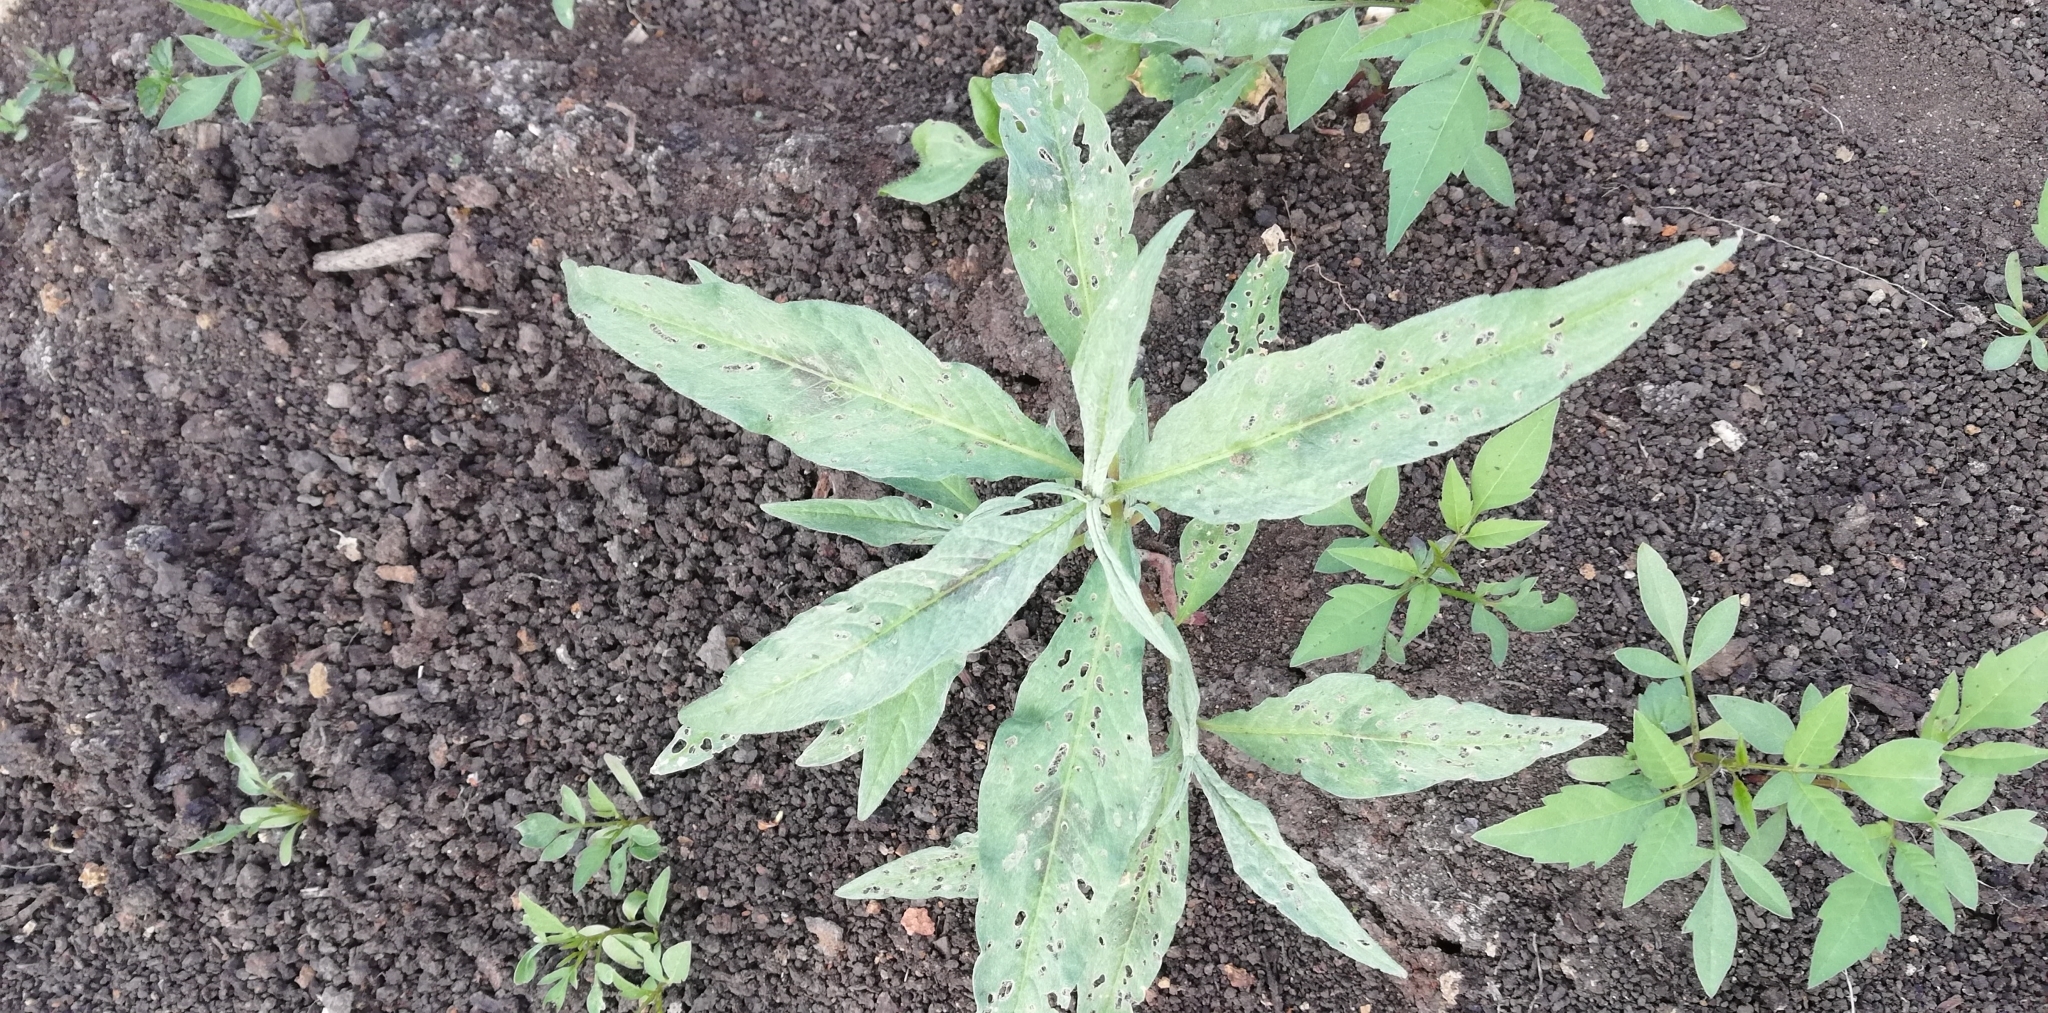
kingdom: Plantae
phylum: Tracheophyta
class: Magnoliopsida
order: Caryophyllales
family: Polygonaceae
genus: Persicaria
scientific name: Persicaria lapathifolia
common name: Curlytop knotweed
